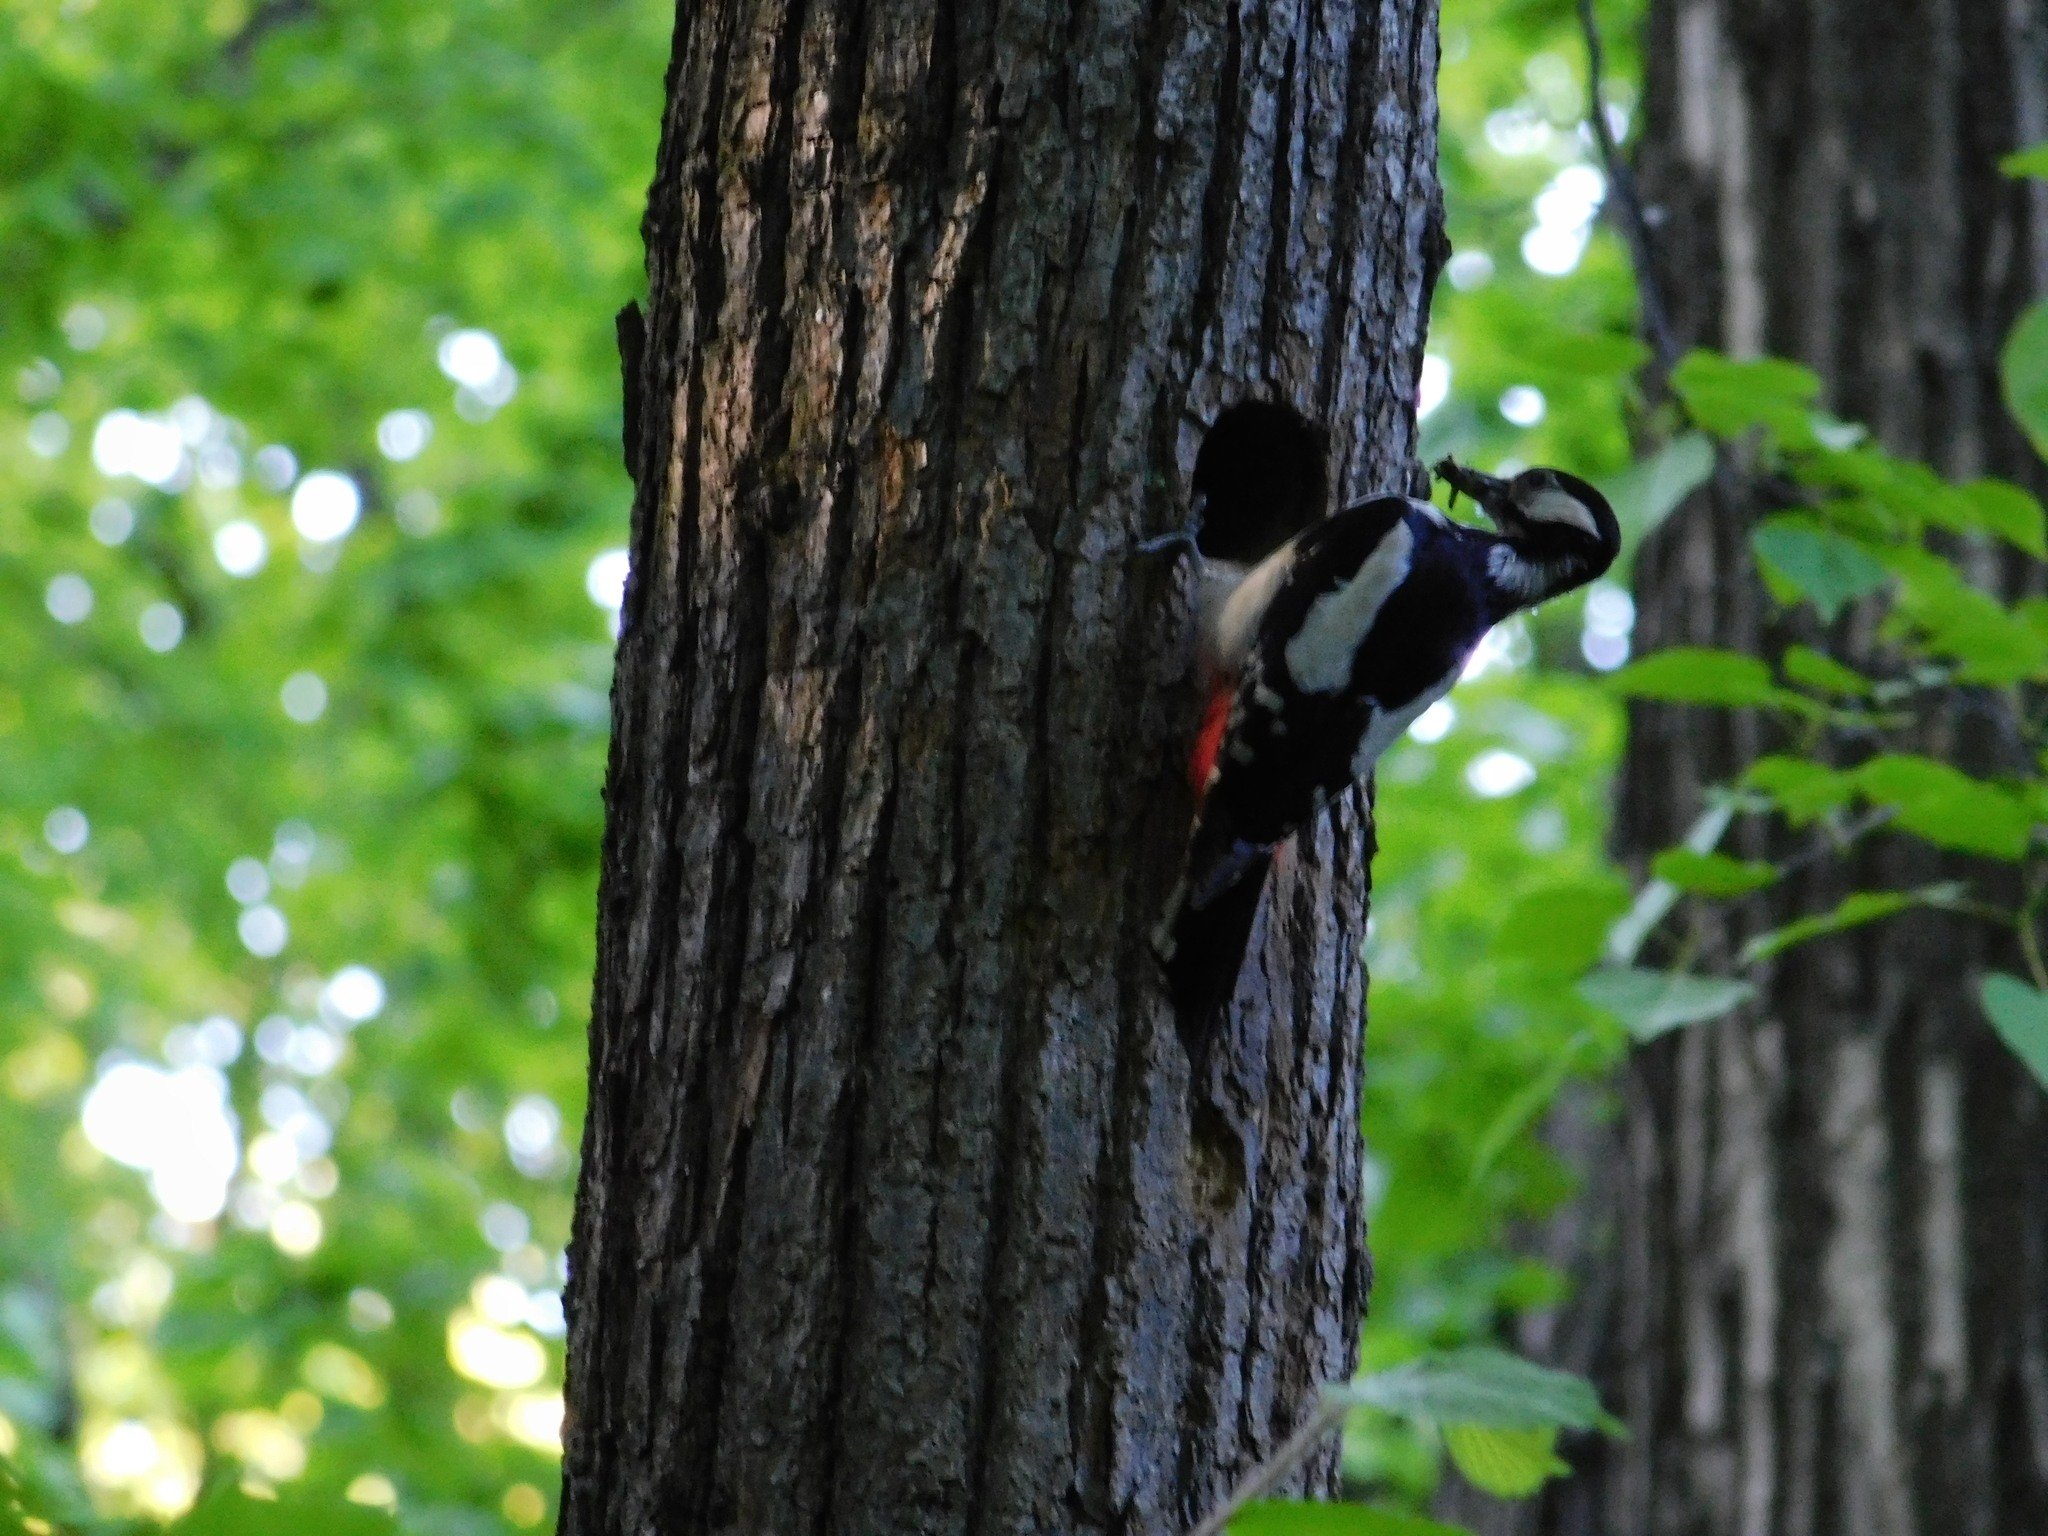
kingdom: Animalia
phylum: Chordata
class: Aves
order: Piciformes
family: Picidae
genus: Dendrocopos
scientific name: Dendrocopos major
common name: Great spotted woodpecker
